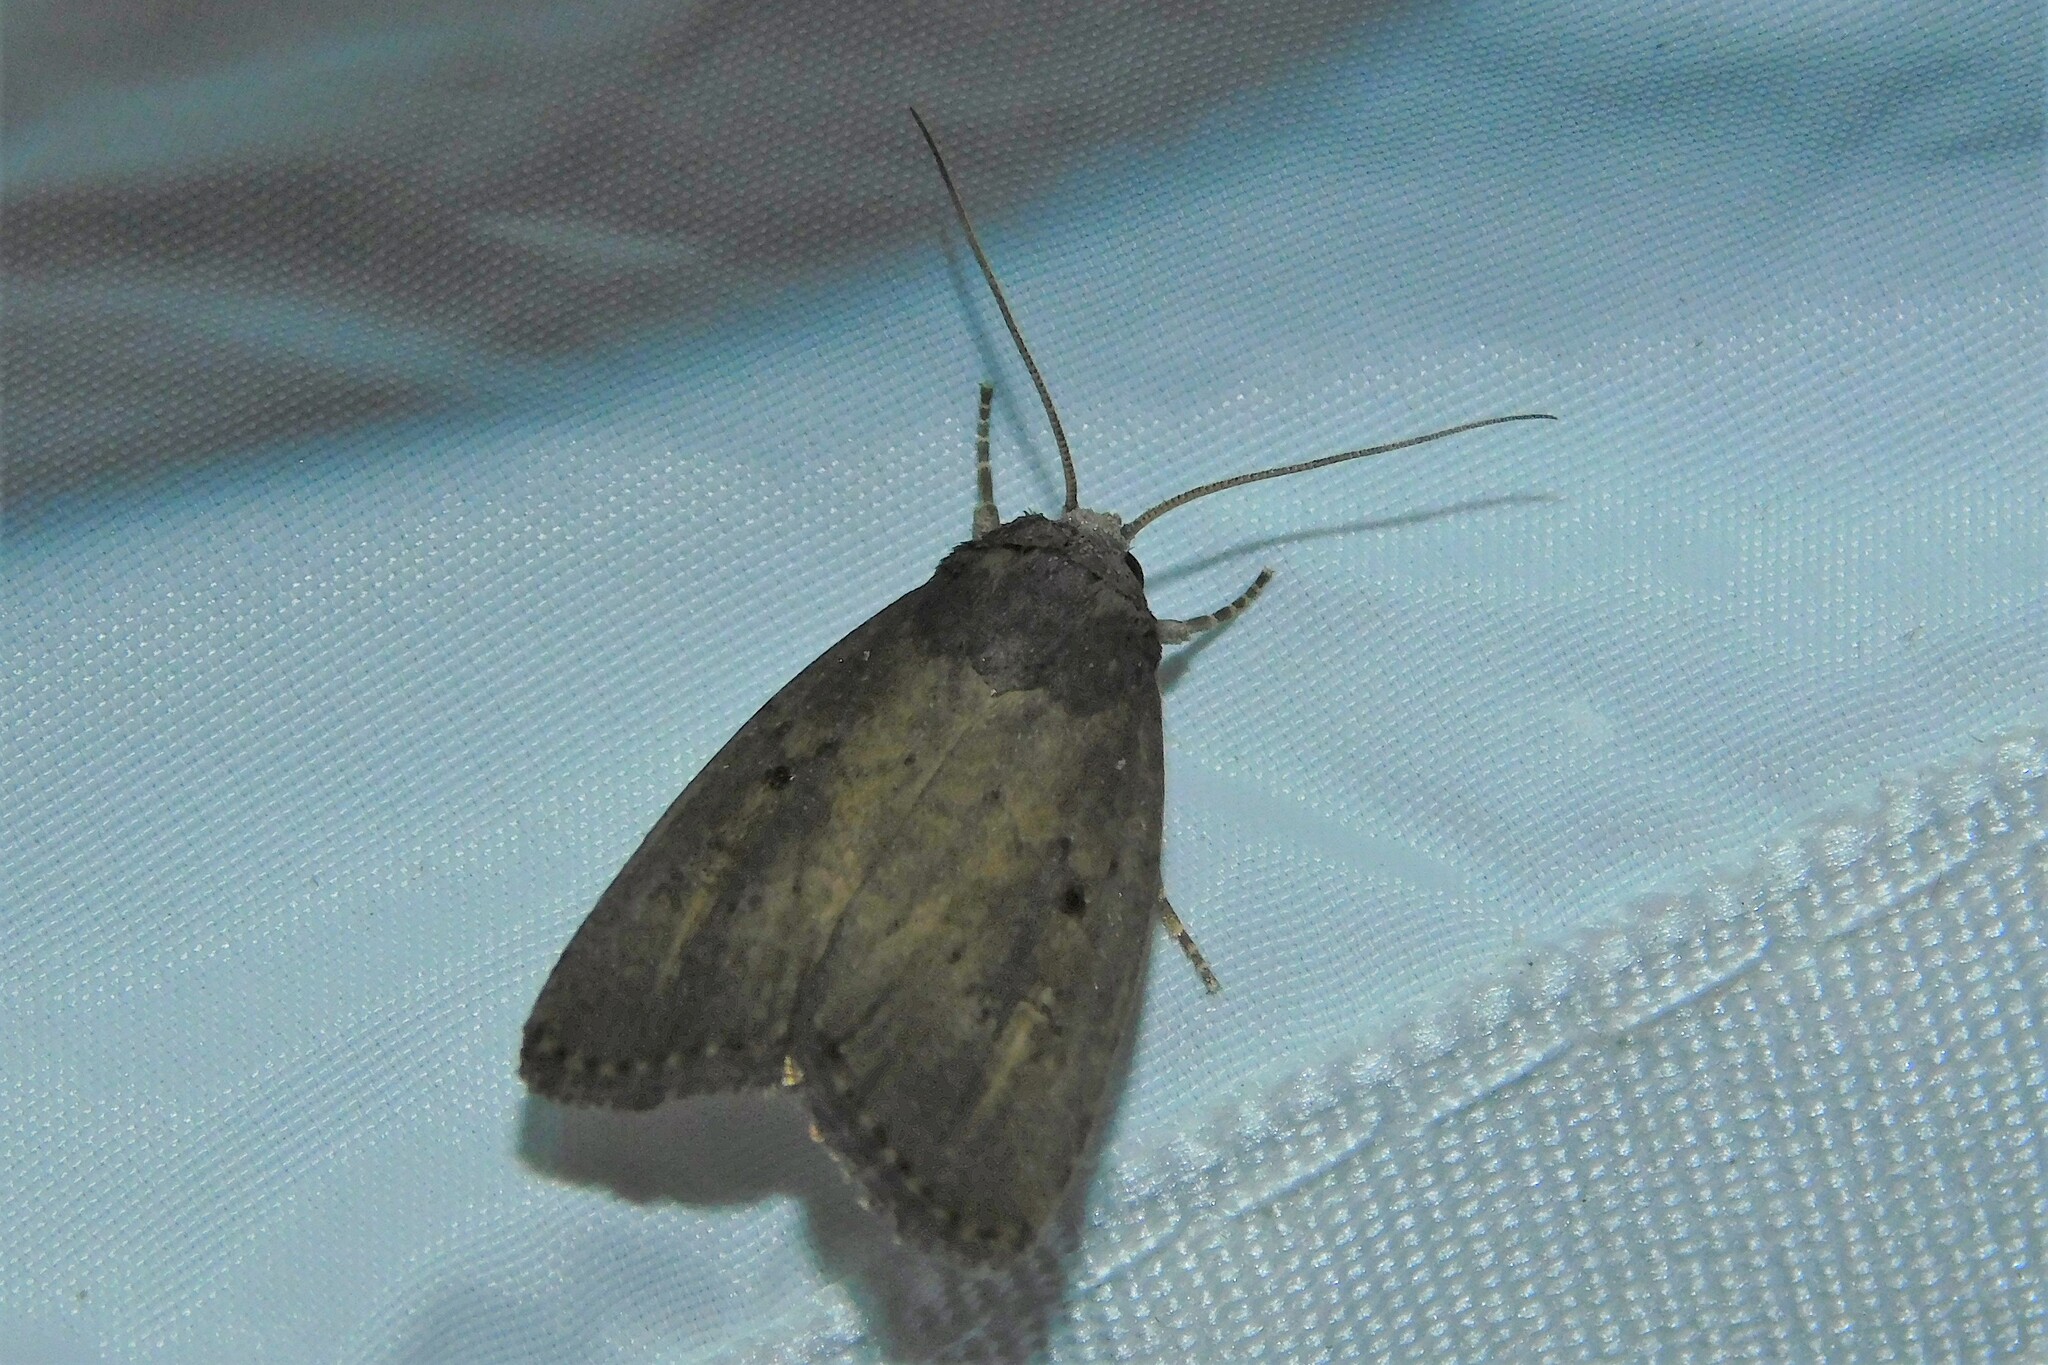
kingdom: Animalia
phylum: Arthropoda
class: Insecta
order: Lepidoptera
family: Noctuidae
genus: Athetis
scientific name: Athetis hospes
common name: Porter's rustic
